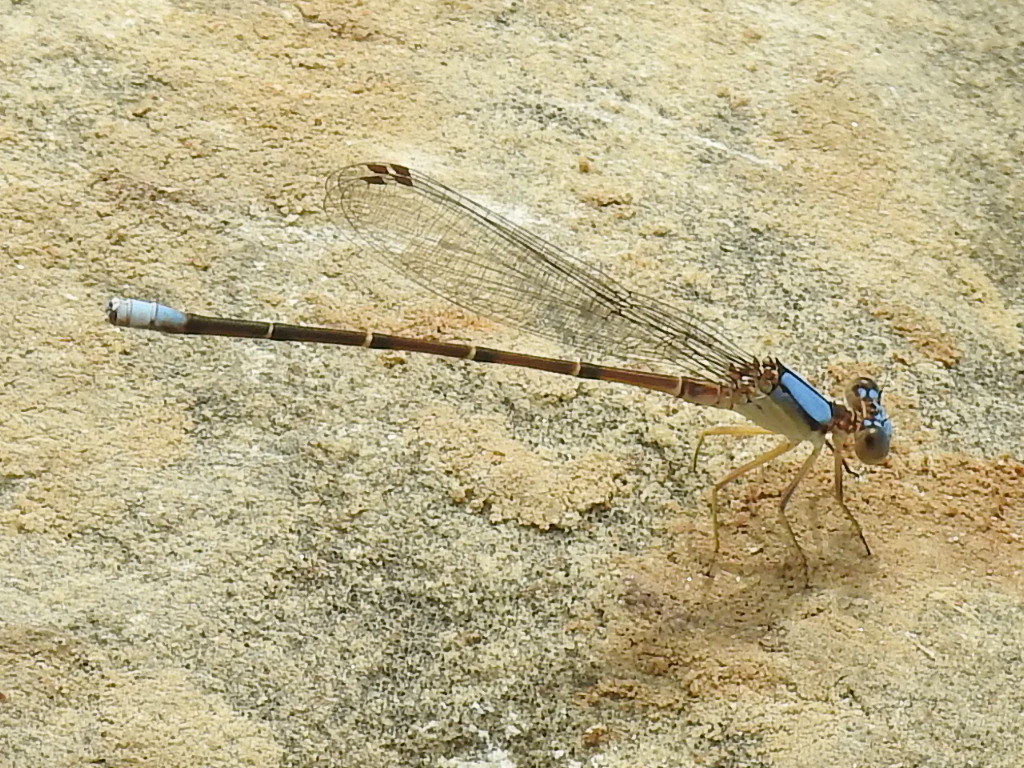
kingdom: Animalia
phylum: Arthropoda
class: Insecta
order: Odonata
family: Coenagrionidae
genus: Argia
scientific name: Argia apicalis
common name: Blue-fronted dancer
